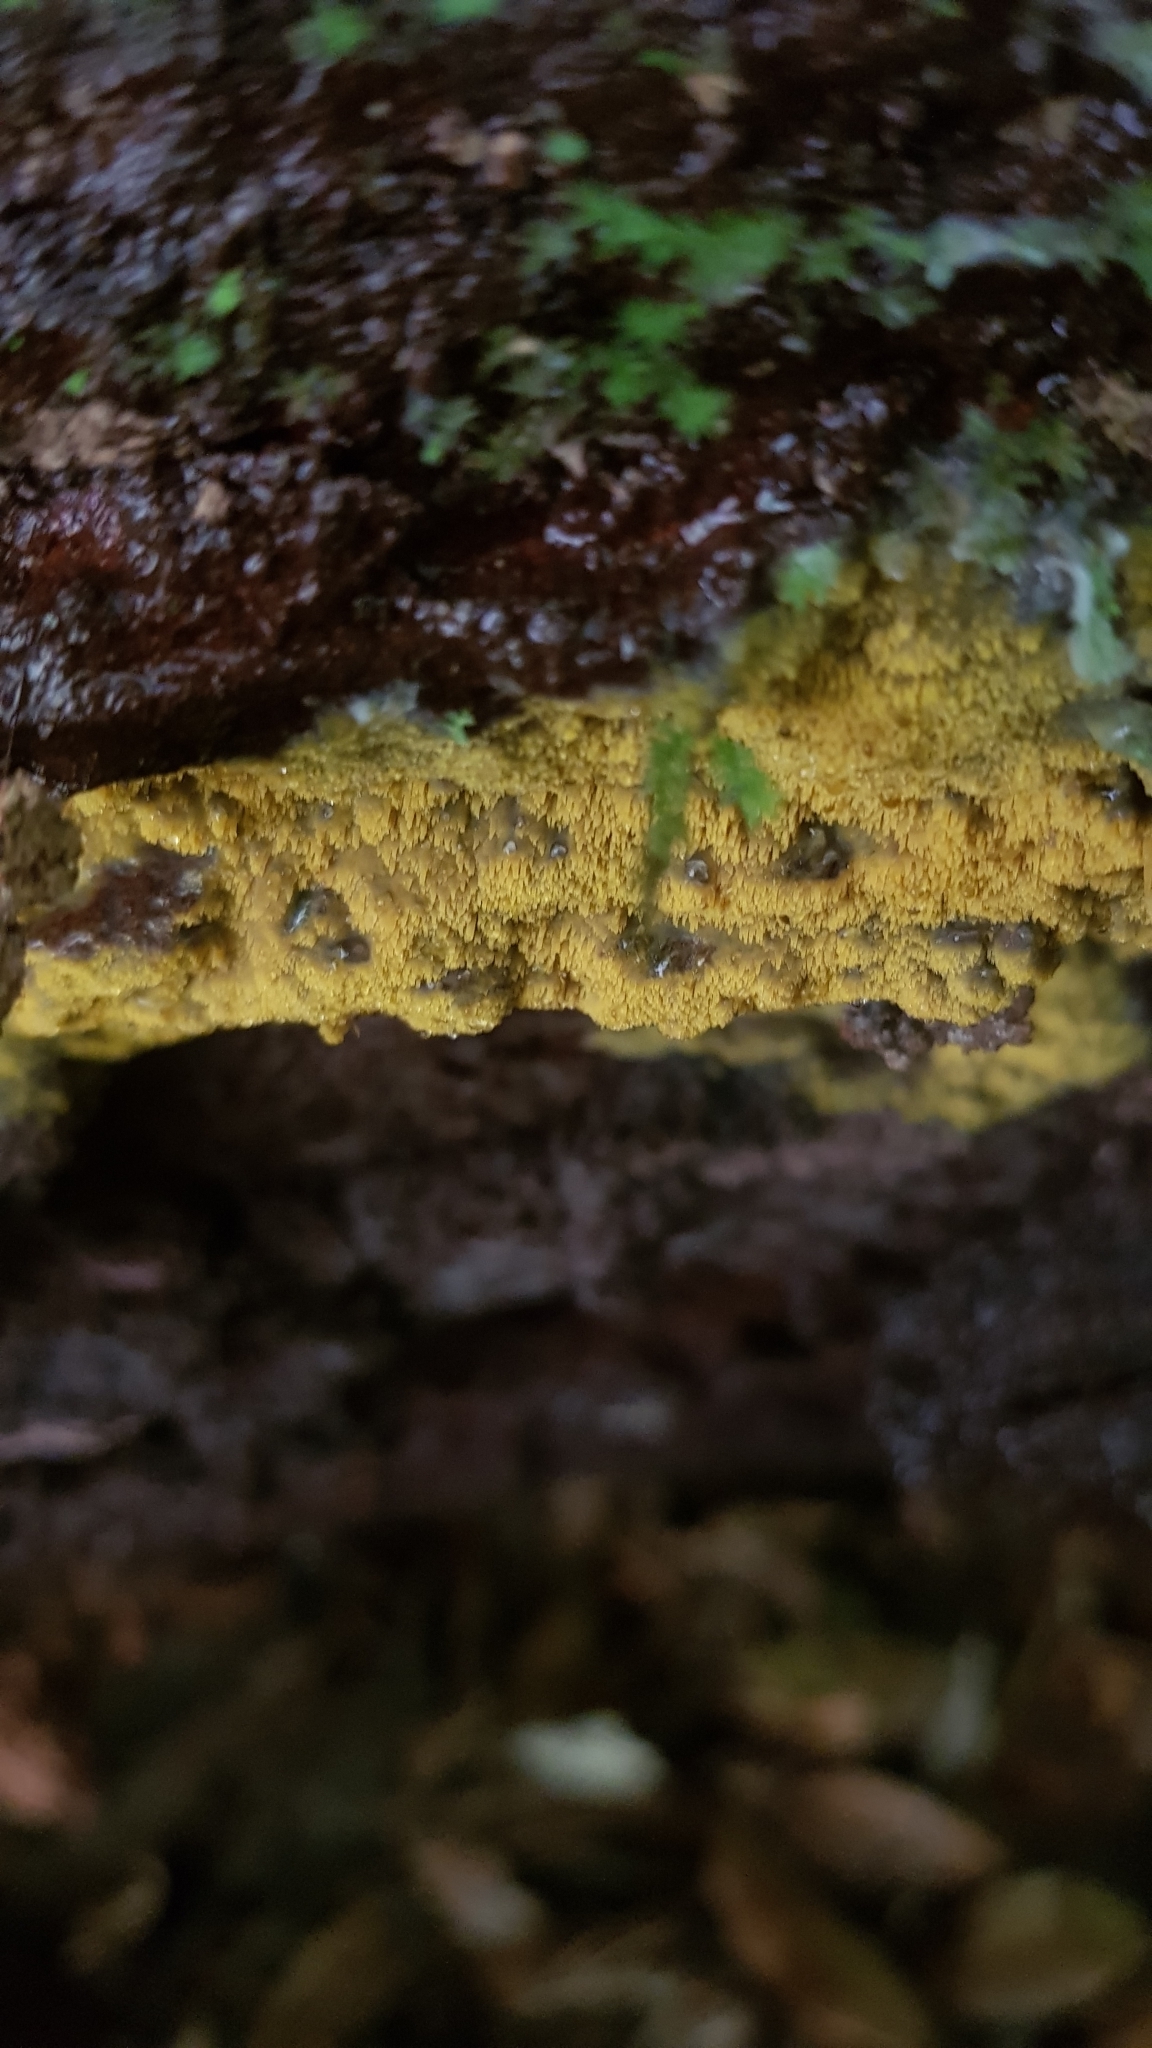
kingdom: Fungi
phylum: Basidiomycota
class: Agaricomycetes
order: Polyporales
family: Meruliaceae
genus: Phlebia
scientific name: Phlebia subceracea
